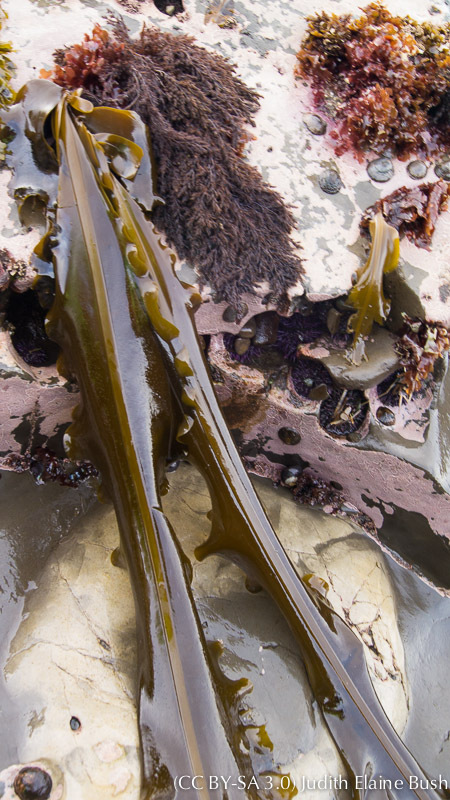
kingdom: Chromista
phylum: Ochrophyta
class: Phaeophyceae
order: Laminariales
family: Alariaceae
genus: Alaria
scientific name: Alaria marginata
